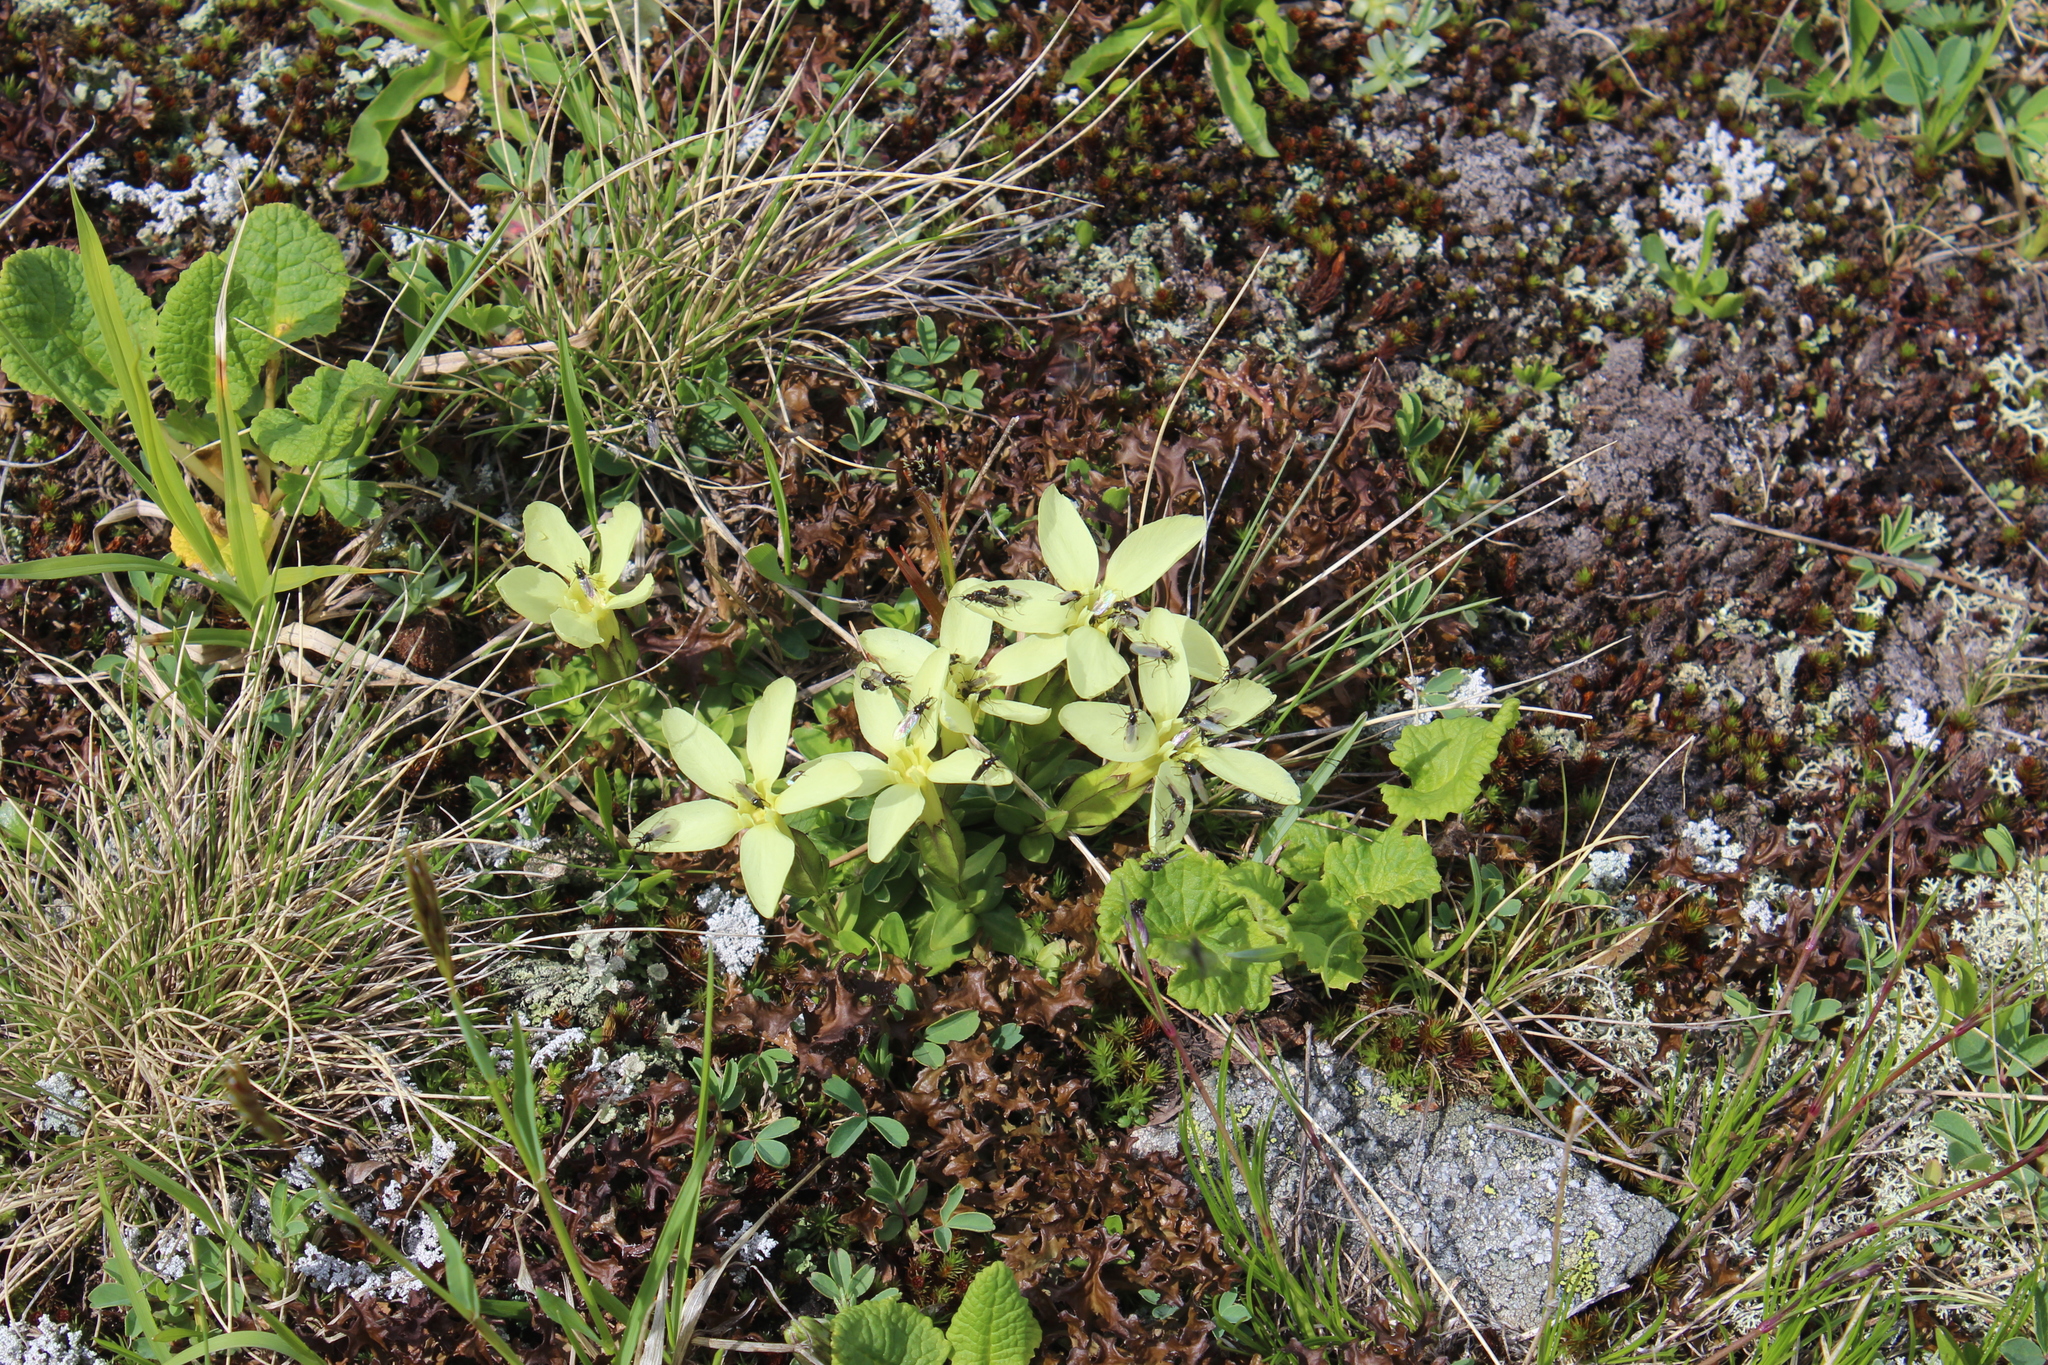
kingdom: Plantae
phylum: Tracheophyta
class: Magnoliopsida
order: Gentianales
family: Gentianaceae
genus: Gentiana
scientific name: Gentiana verna
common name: Spring gentian
